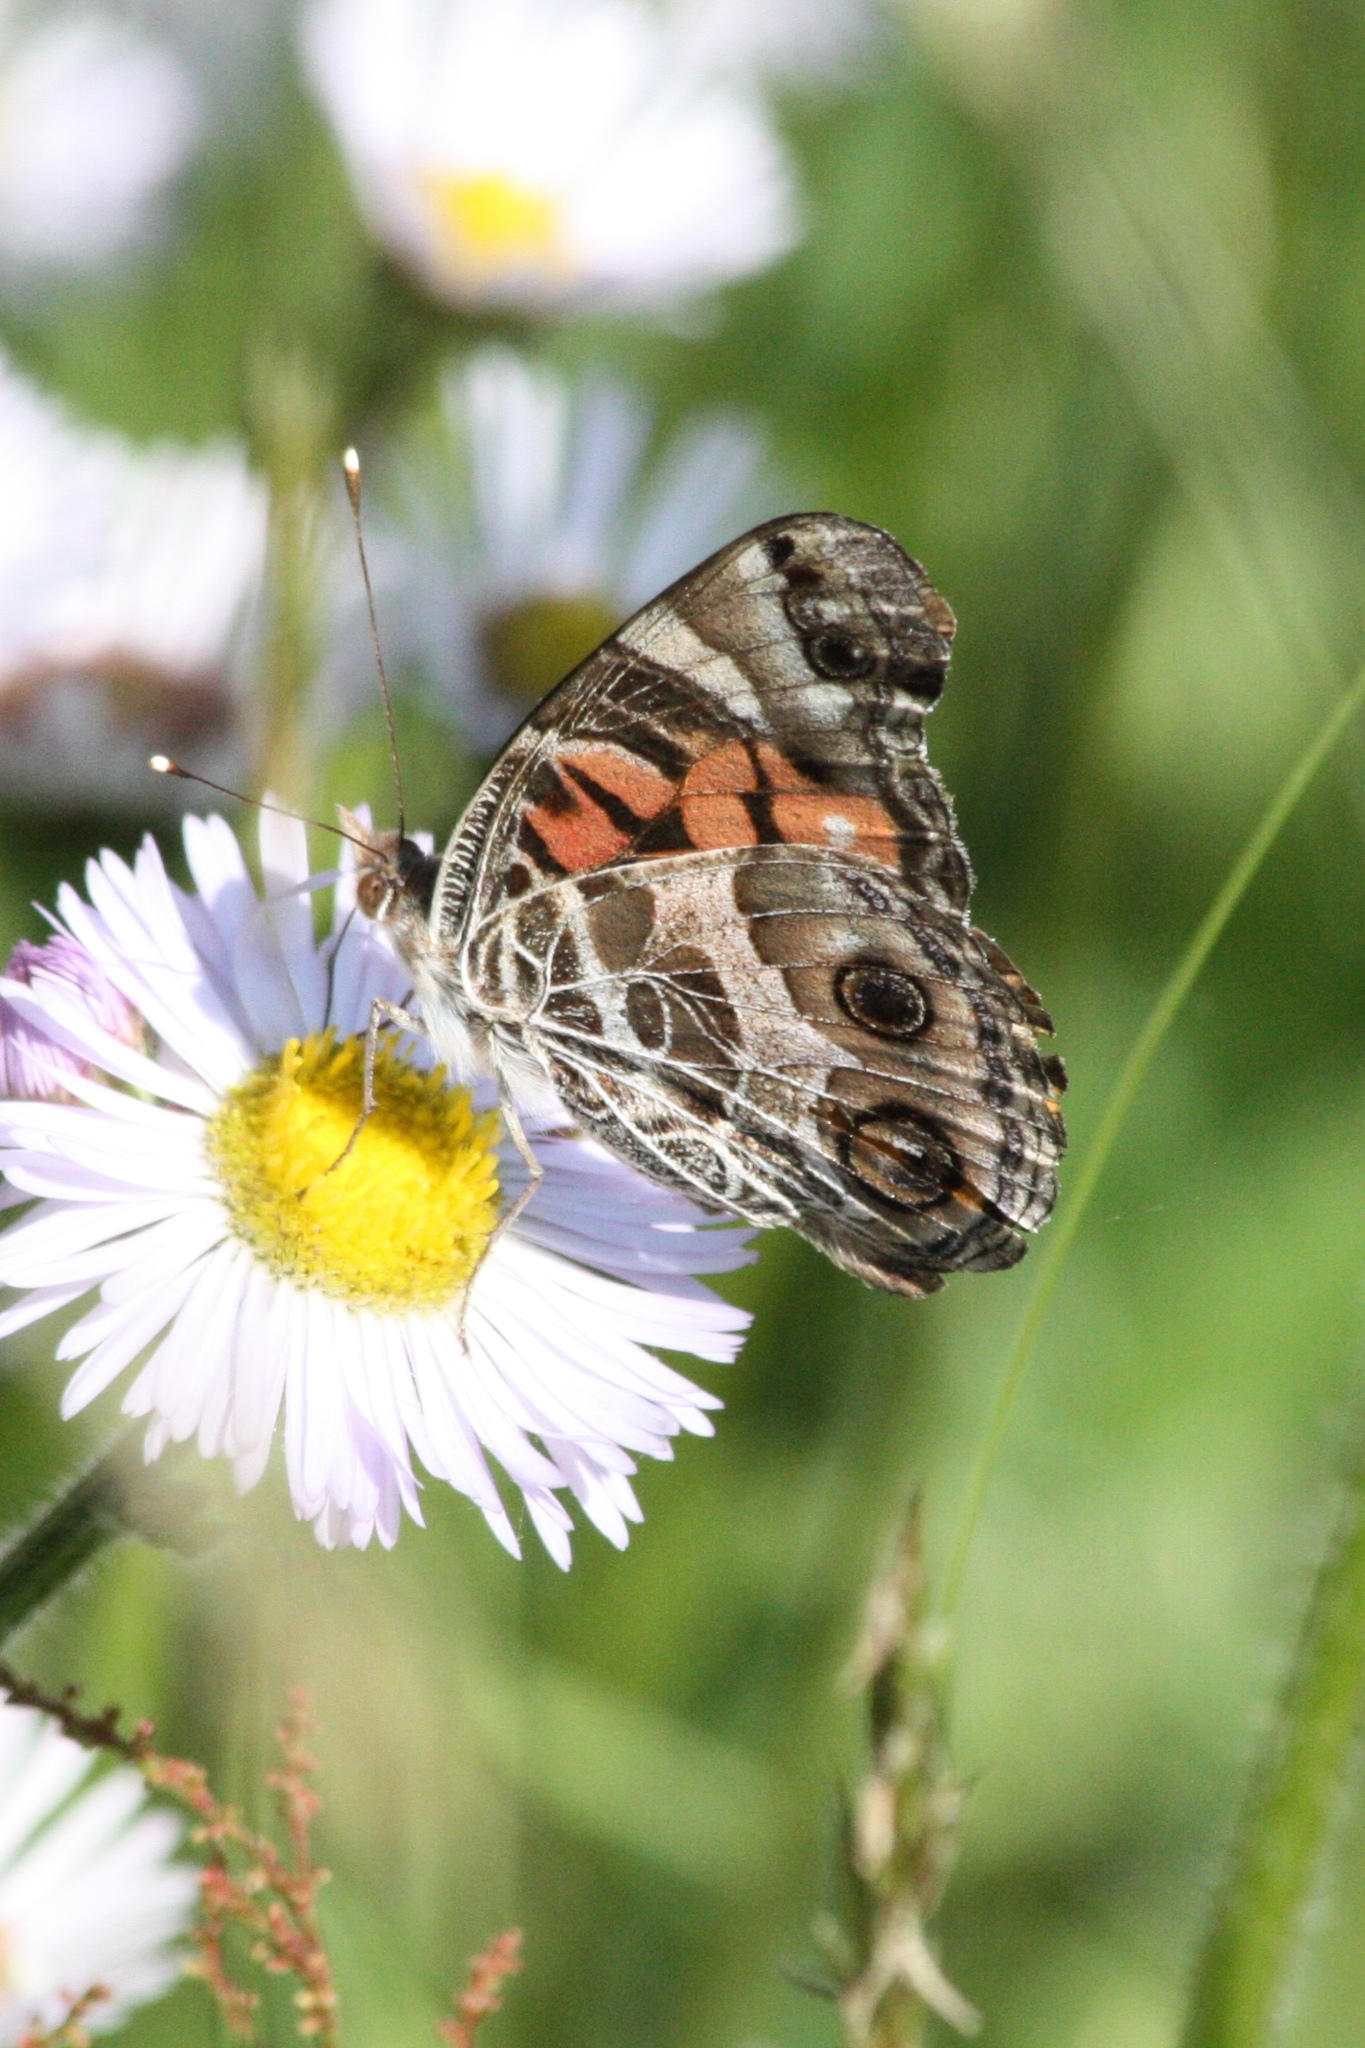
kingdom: Animalia
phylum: Arthropoda
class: Insecta
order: Lepidoptera
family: Nymphalidae
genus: Vanessa
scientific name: Vanessa virginiensis
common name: American lady
